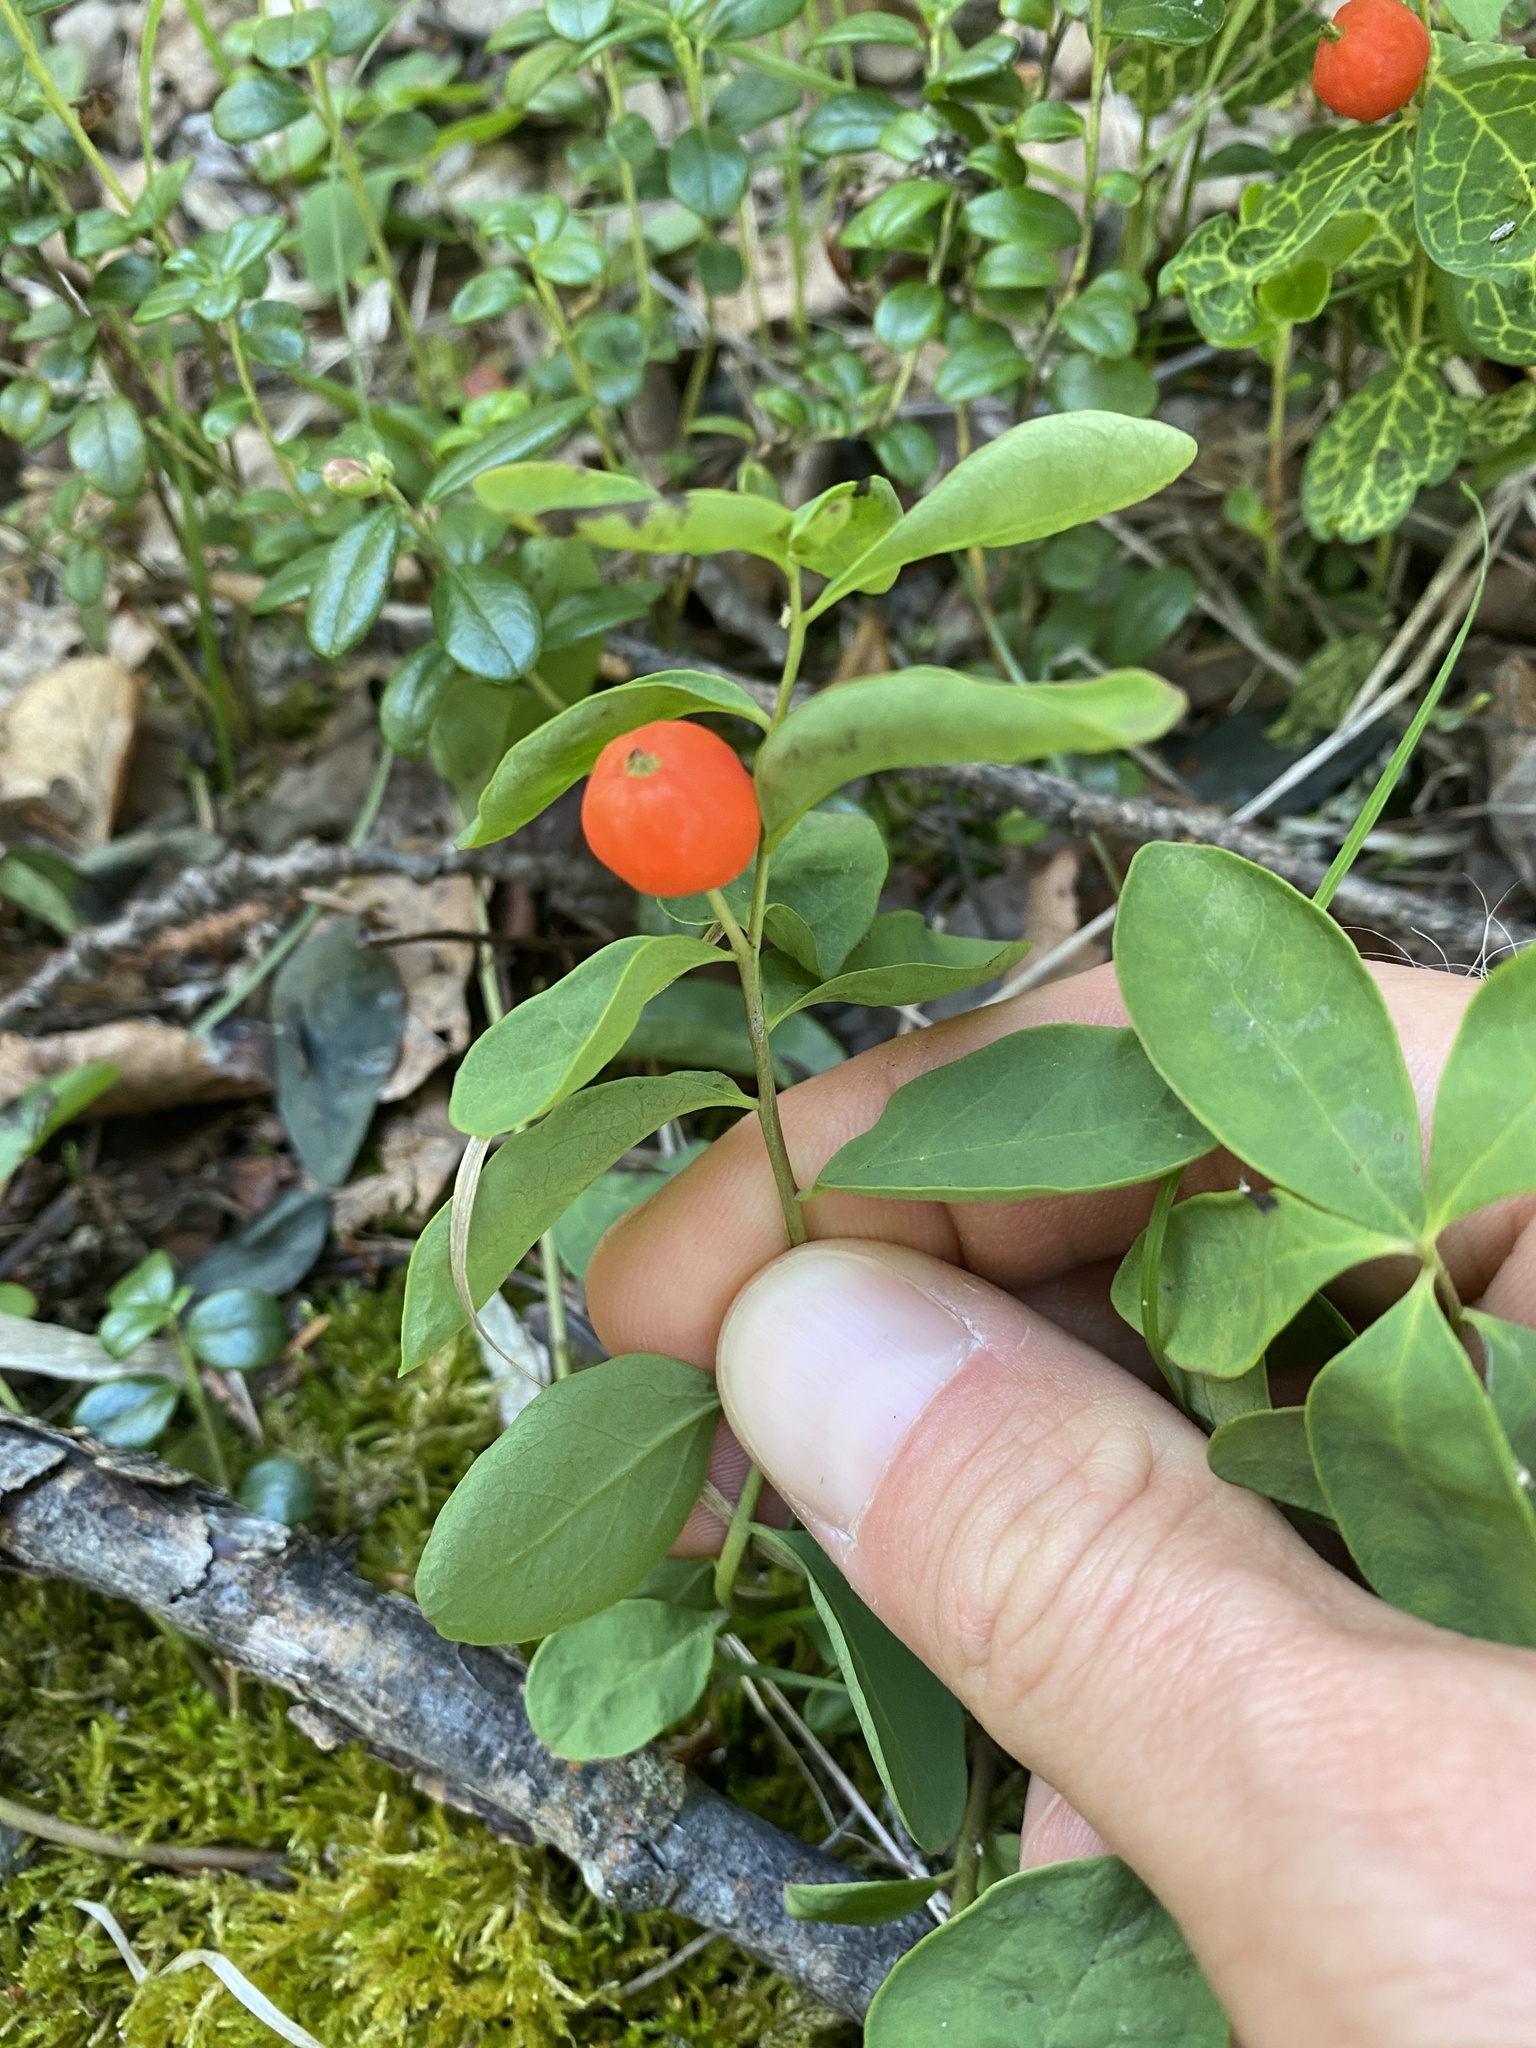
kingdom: Plantae
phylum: Tracheophyta
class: Magnoliopsida
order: Santalales
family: Comandraceae
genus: Geocaulon
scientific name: Geocaulon lividum
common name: Earthberry
